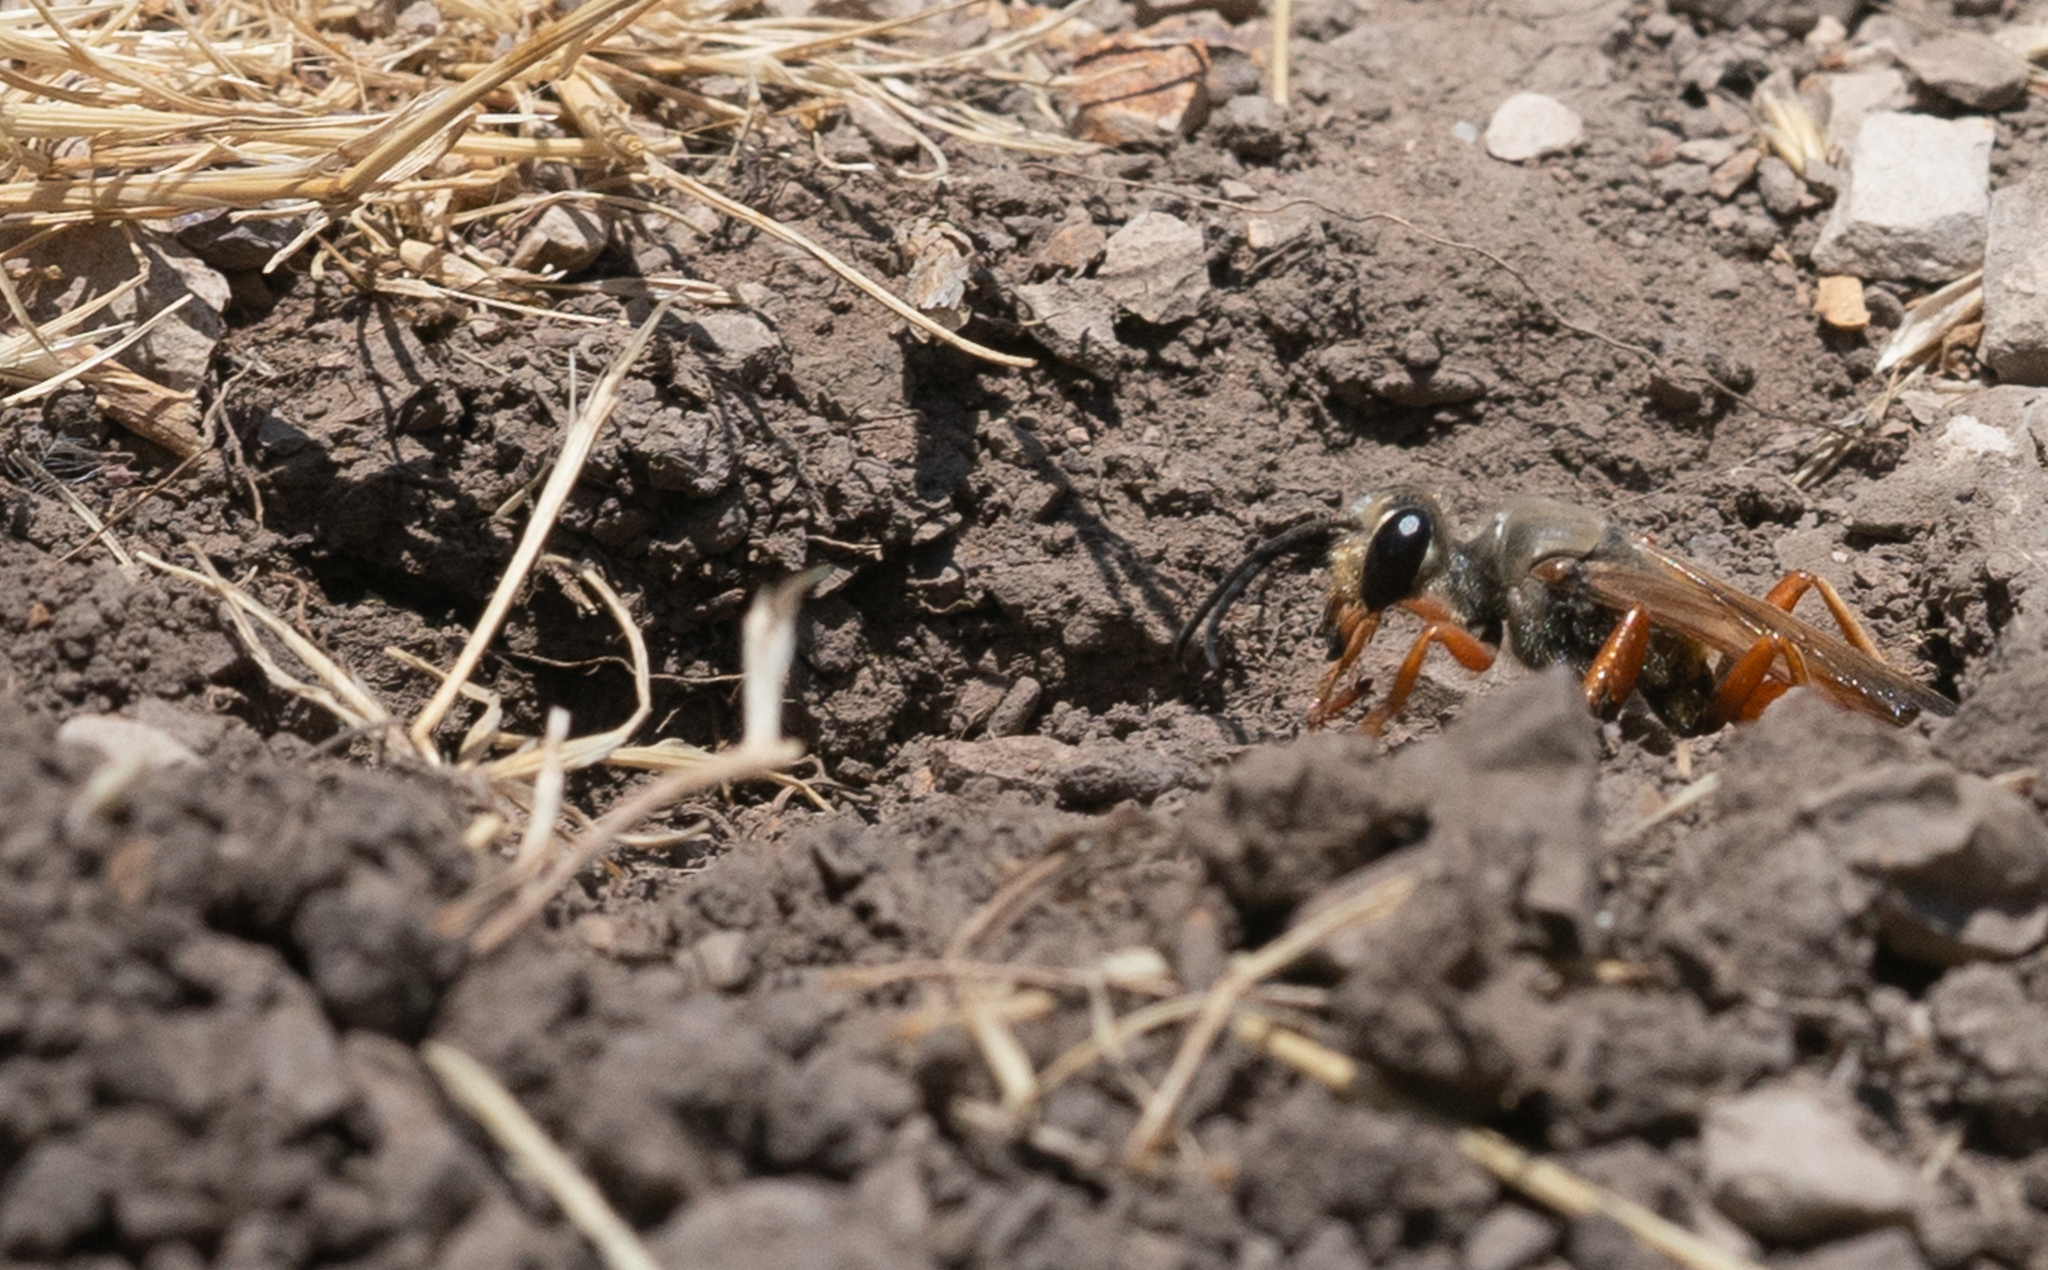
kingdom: Animalia
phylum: Arthropoda
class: Insecta
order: Hymenoptera
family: Sphecidae
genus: Sphex
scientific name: Sphex ichneumoneus
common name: Great golden digger wasp
